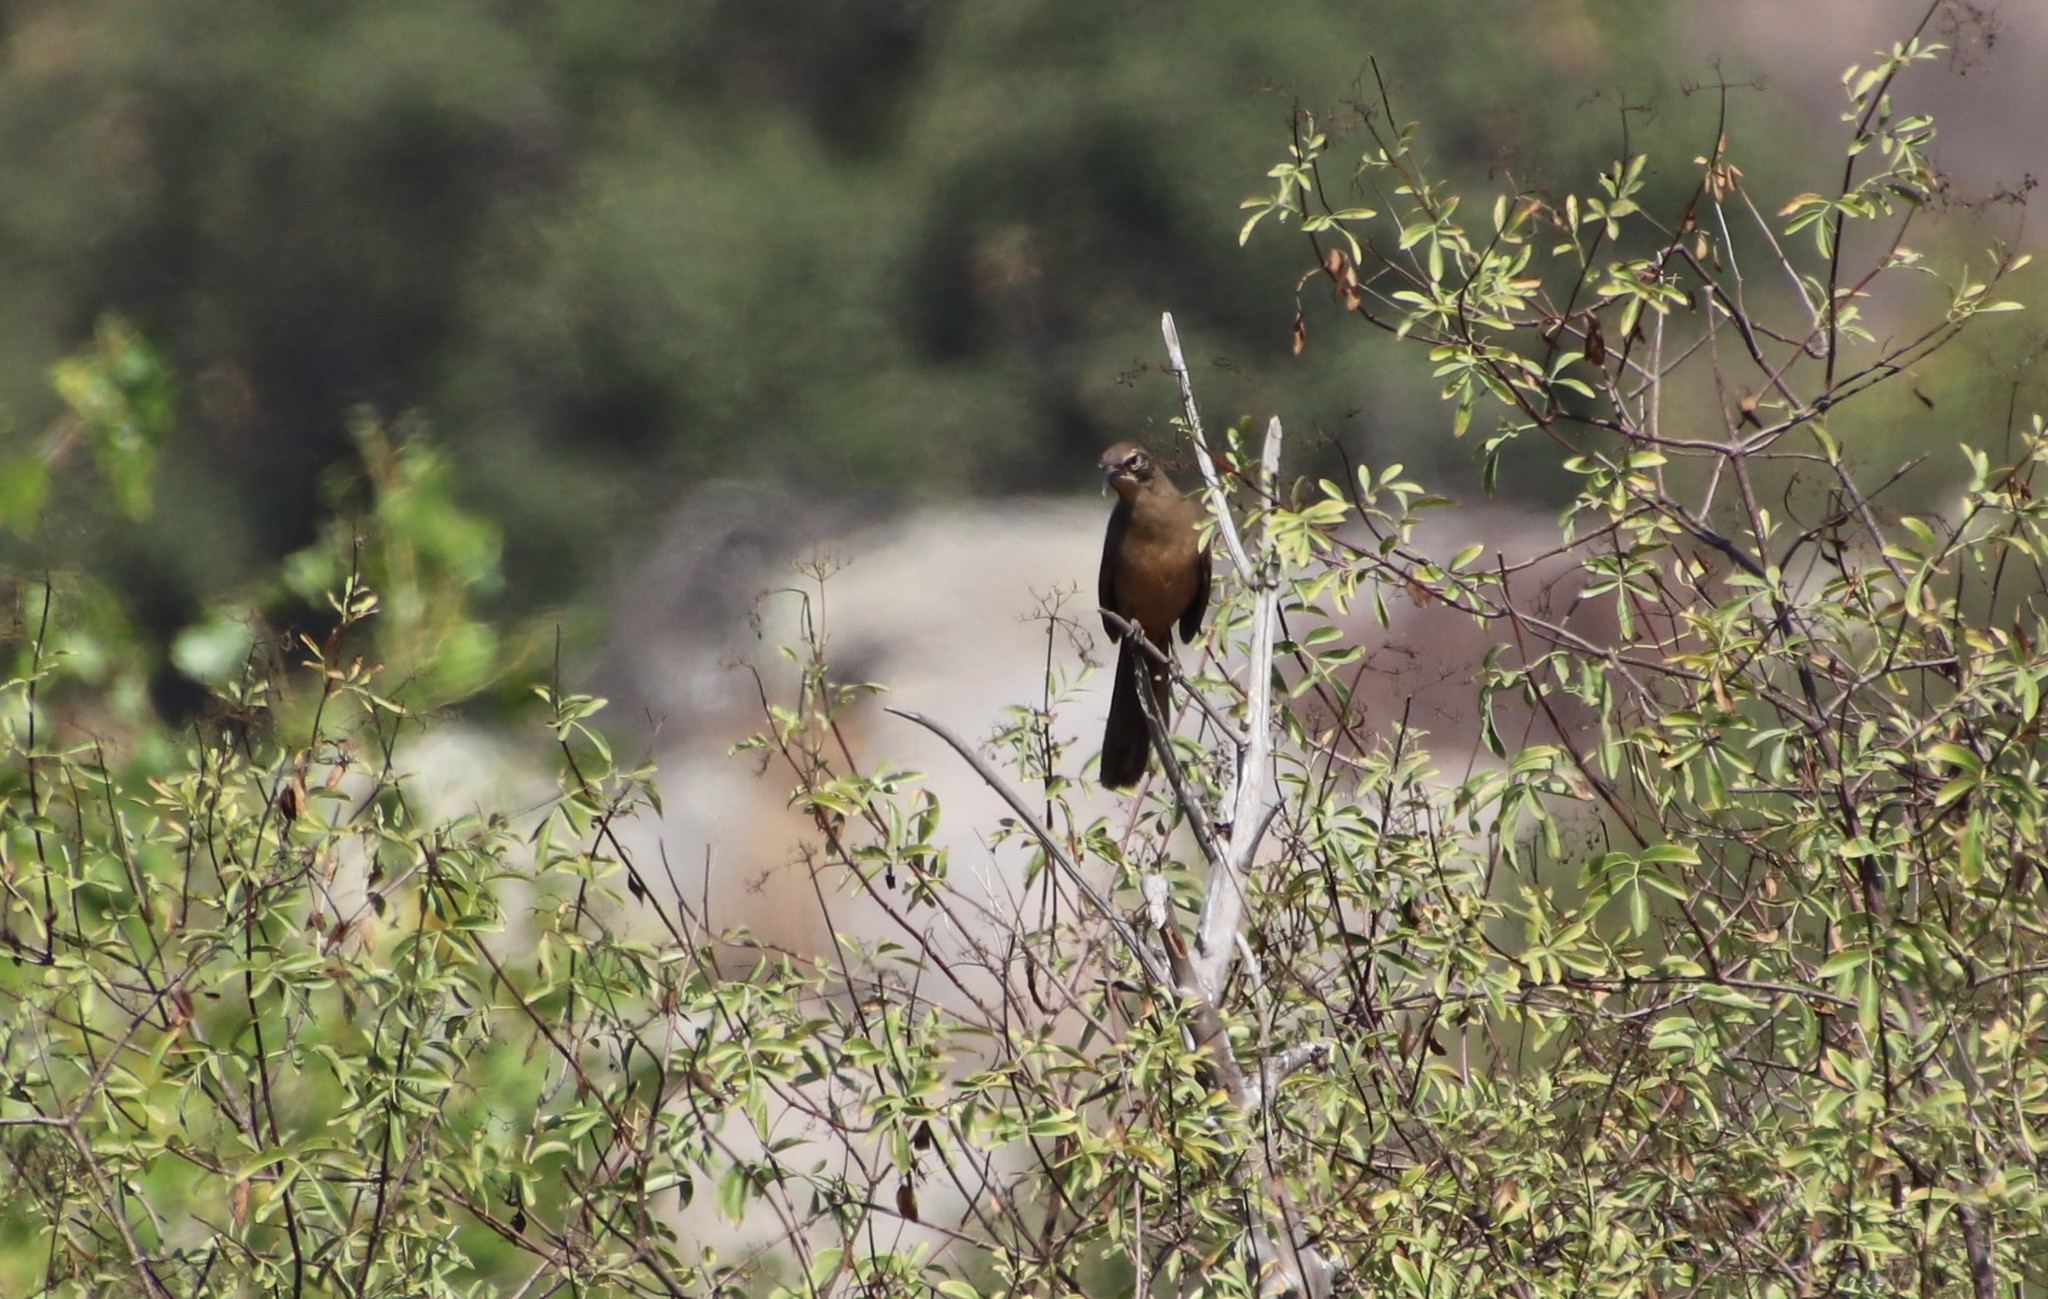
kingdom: Animalia
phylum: Chordata
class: Aves
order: Passeriformes
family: Mimidae
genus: Toxostoma
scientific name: Toxostoma redivivum
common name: California thrasher
